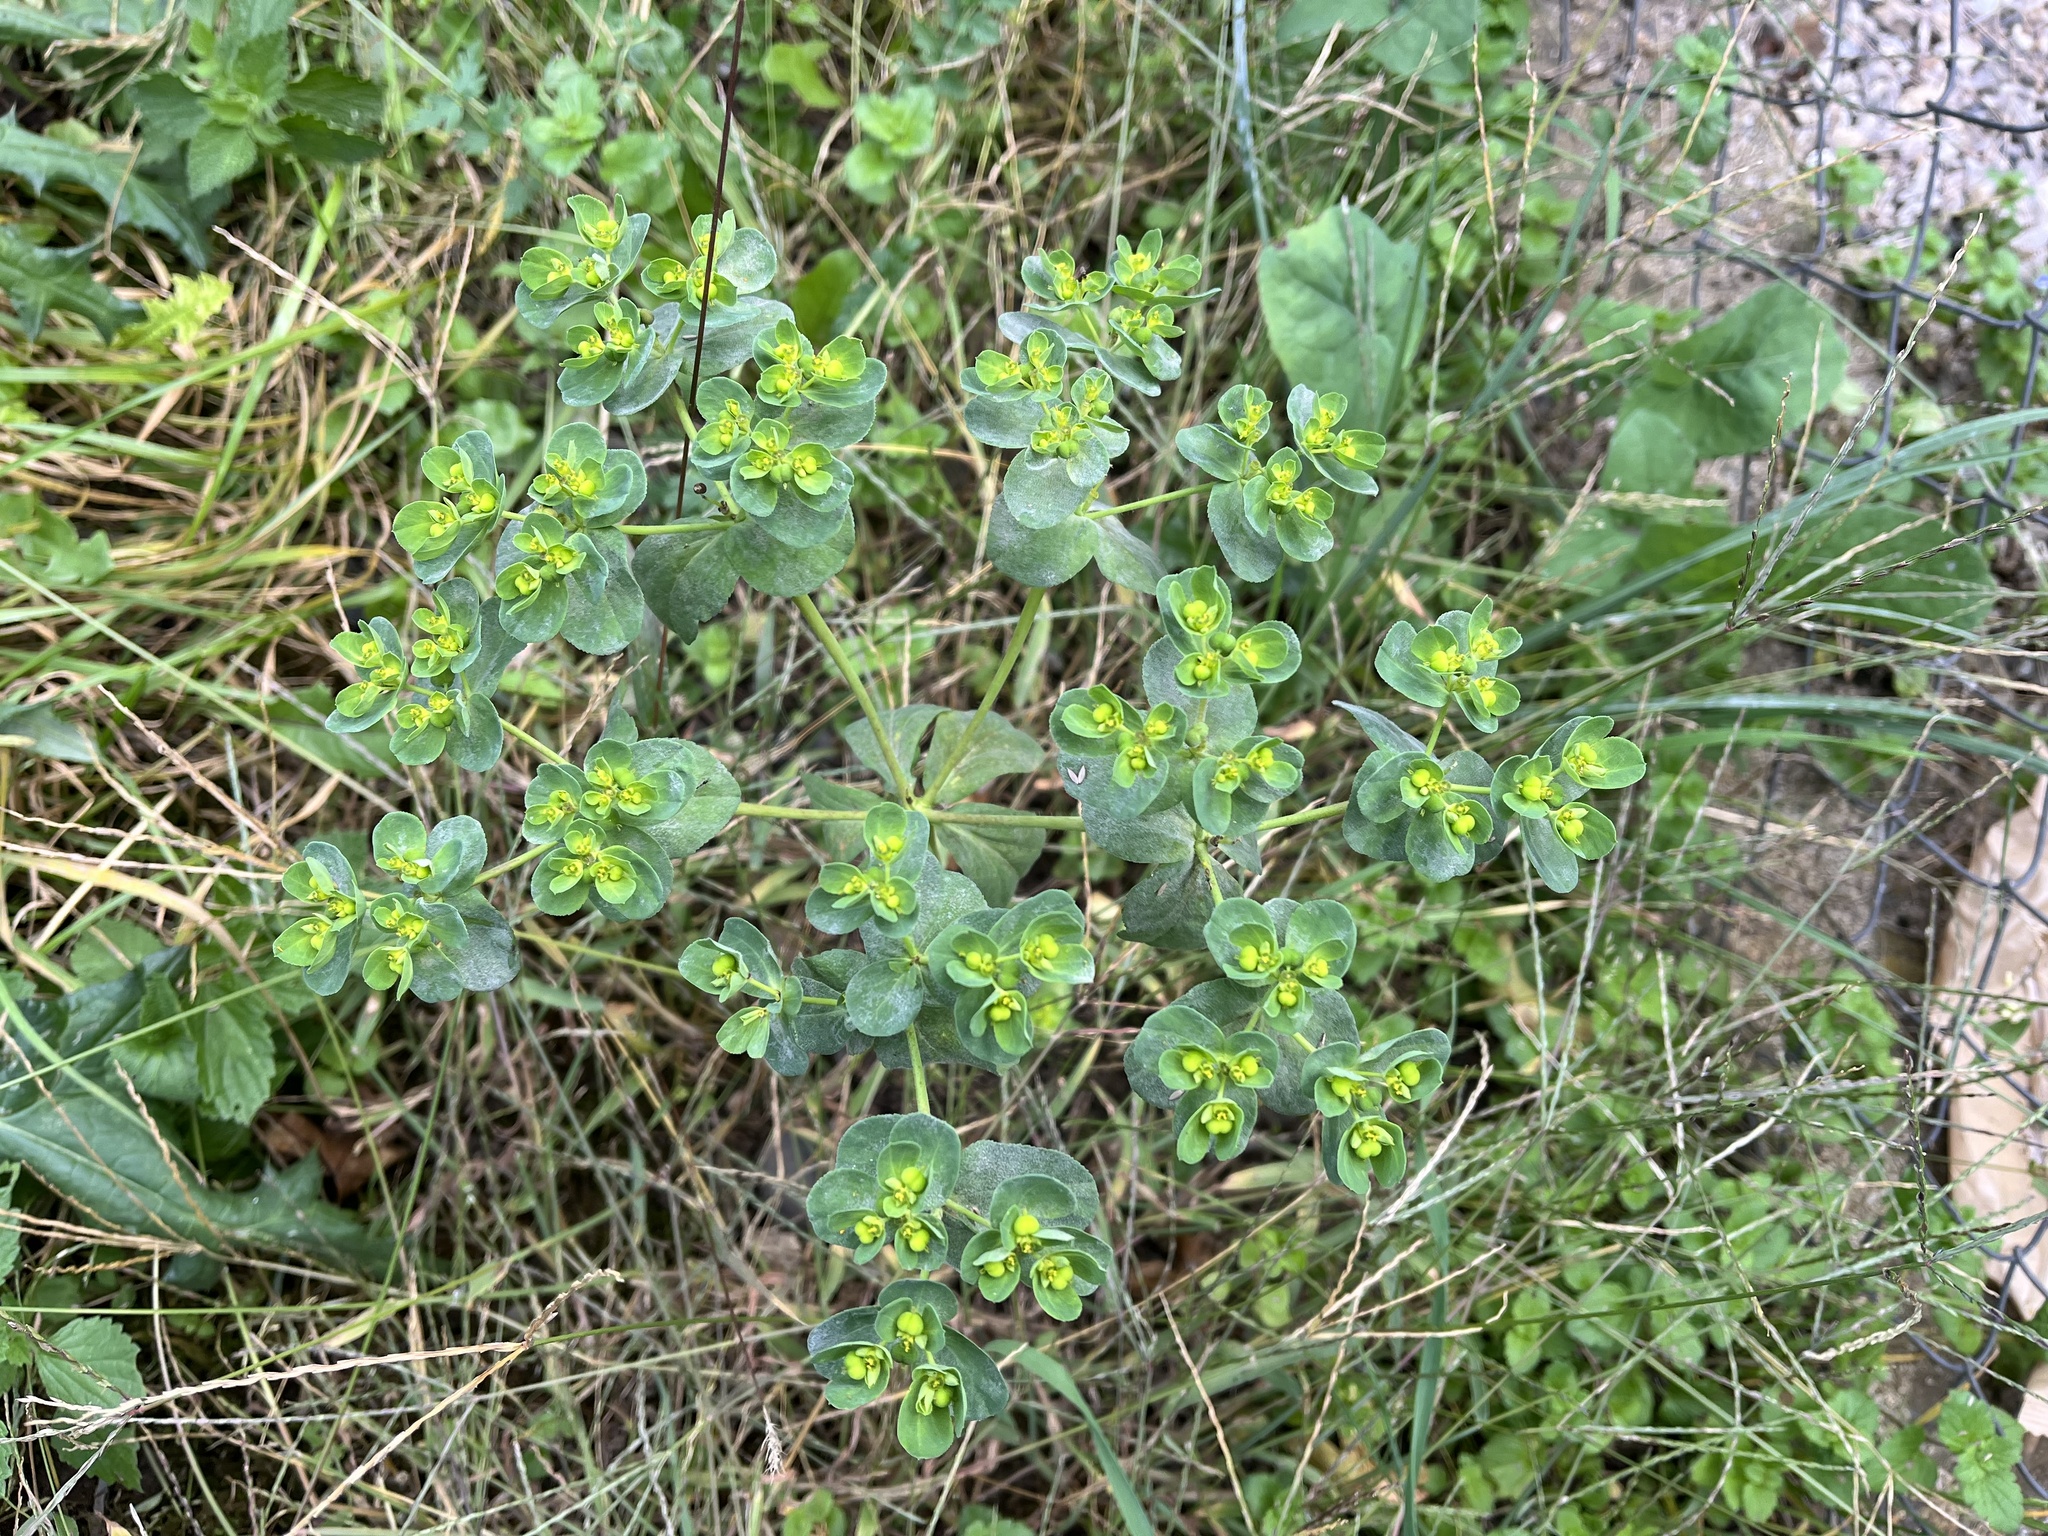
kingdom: Plantae
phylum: Tracheophyta
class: Magnoliopsida
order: Malpighiales
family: Euphorbiaceae
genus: Euphorbia
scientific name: Euphorbia helioscopia
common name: Sun spurge
